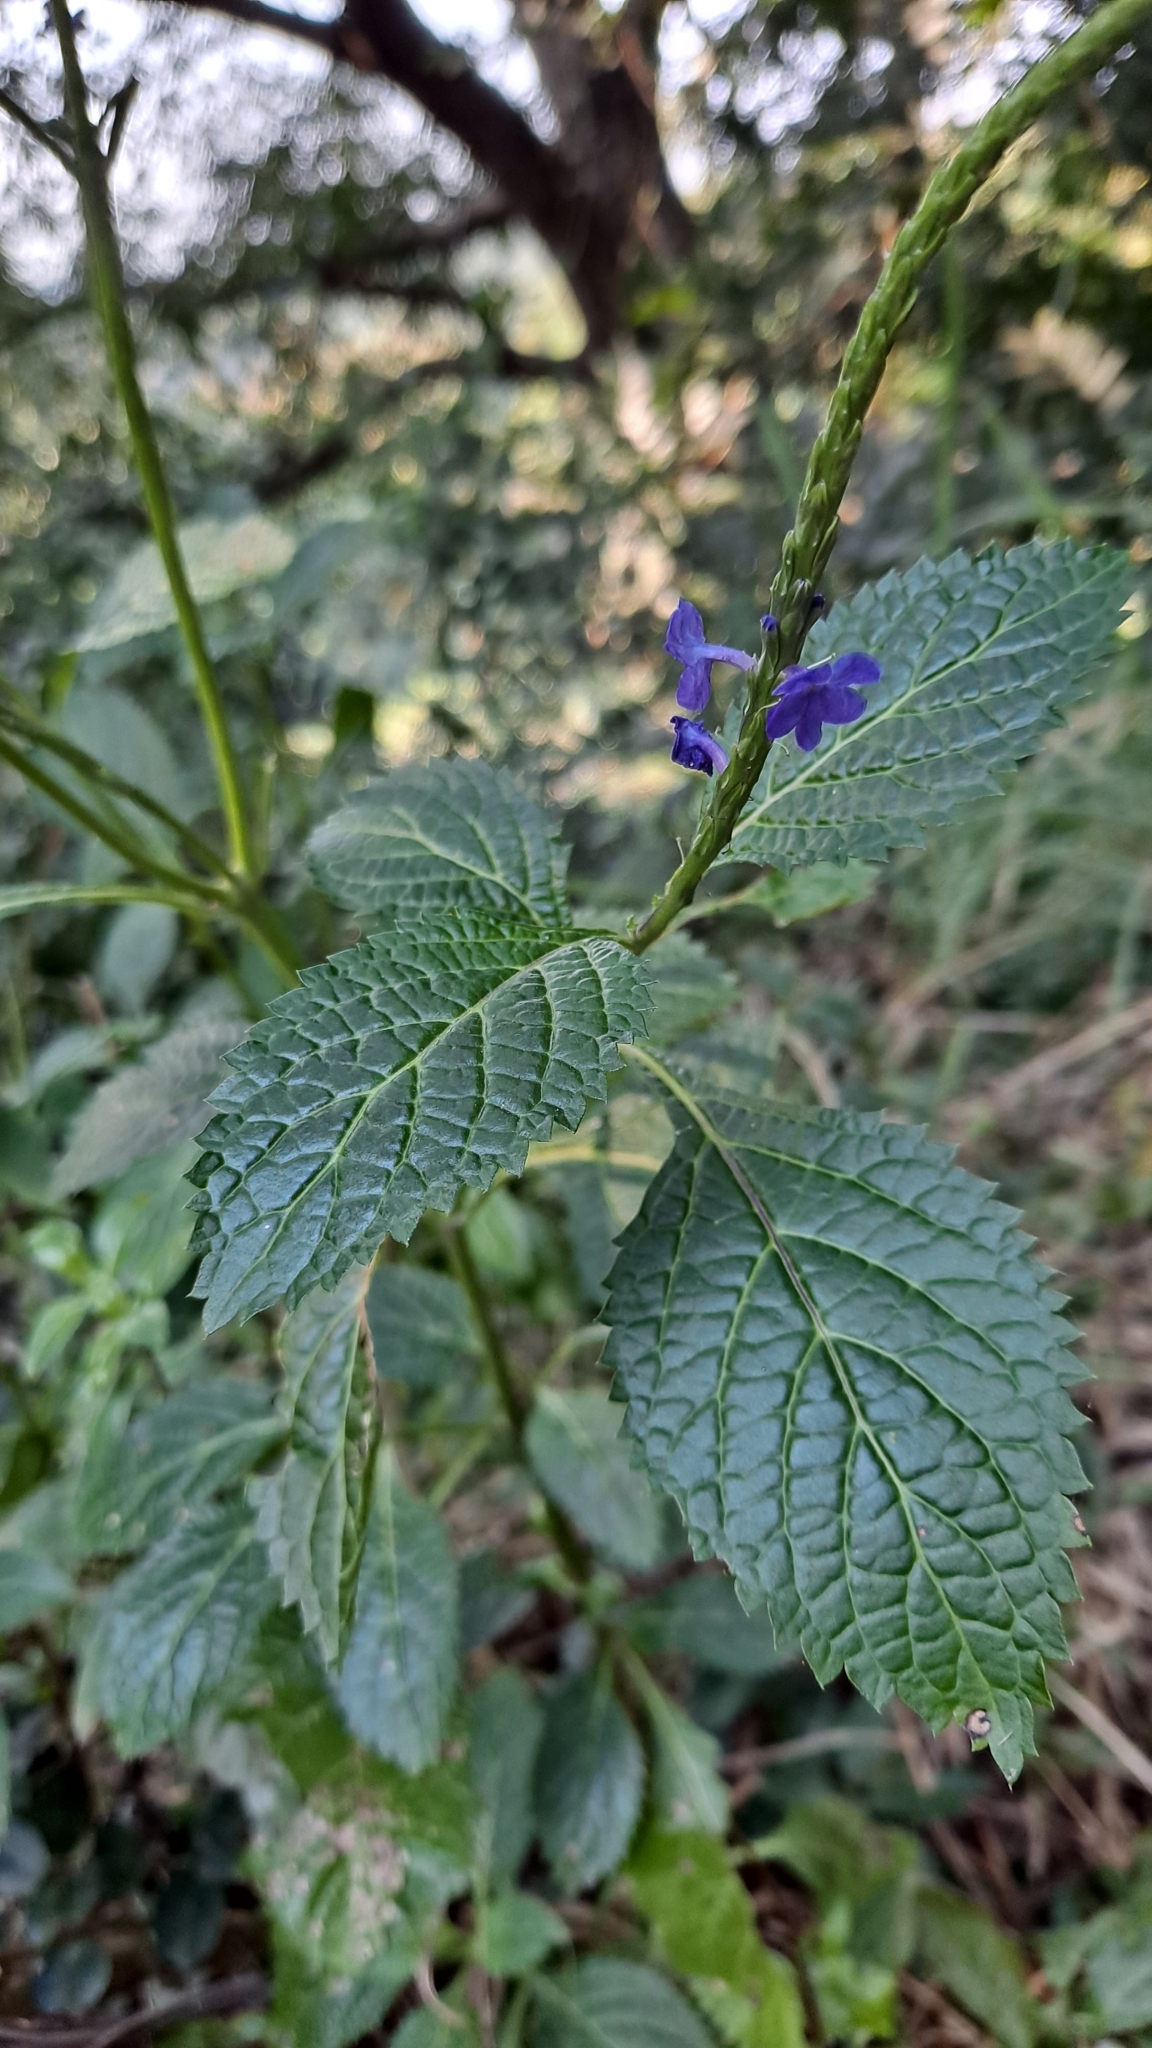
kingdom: Plantae
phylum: Tracheophyta
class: Magnoliopsida
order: Lamiales
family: Verbenaceae
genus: Stachytarpheta
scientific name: Stachytarpheta urticifolia
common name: Nettleleaf velvetberry
